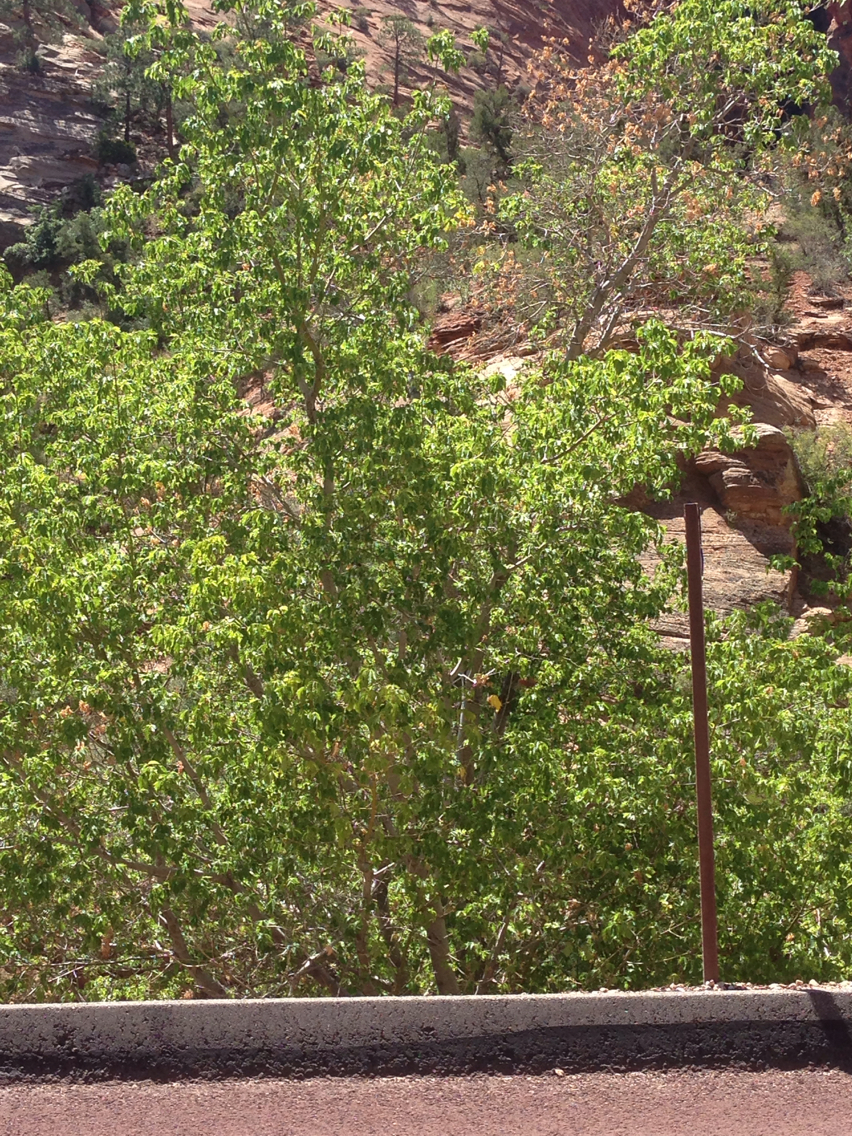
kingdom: Plantae
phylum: Tracheophyta
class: Magnoliopsida
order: Sapindales
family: Sapindaceae
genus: Acer
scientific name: Acer negundo
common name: Ashleaf maple
